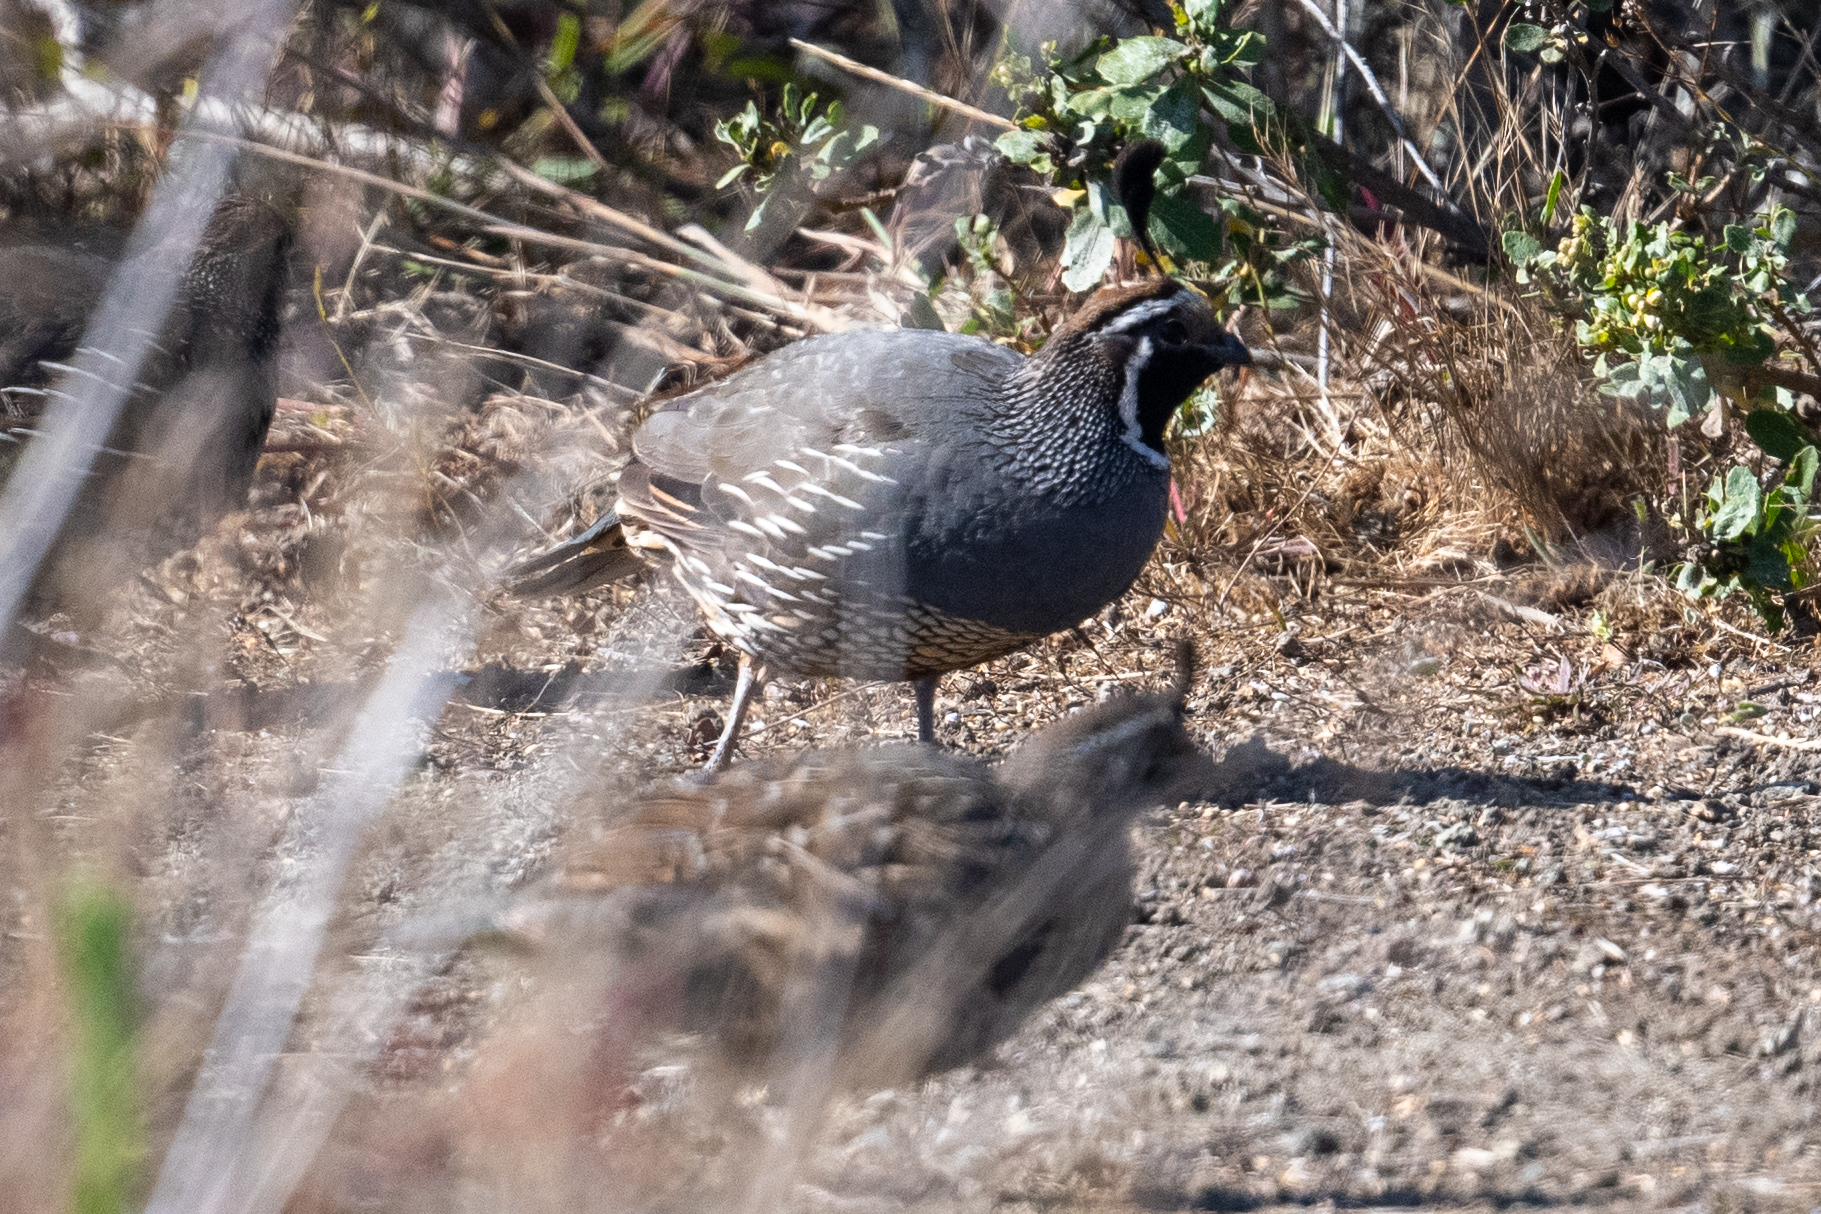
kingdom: Animalia
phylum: Chordata
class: Aves
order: Galliformes
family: Odontophoridae
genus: Callipepla
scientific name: Callipepla californica
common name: California quail
